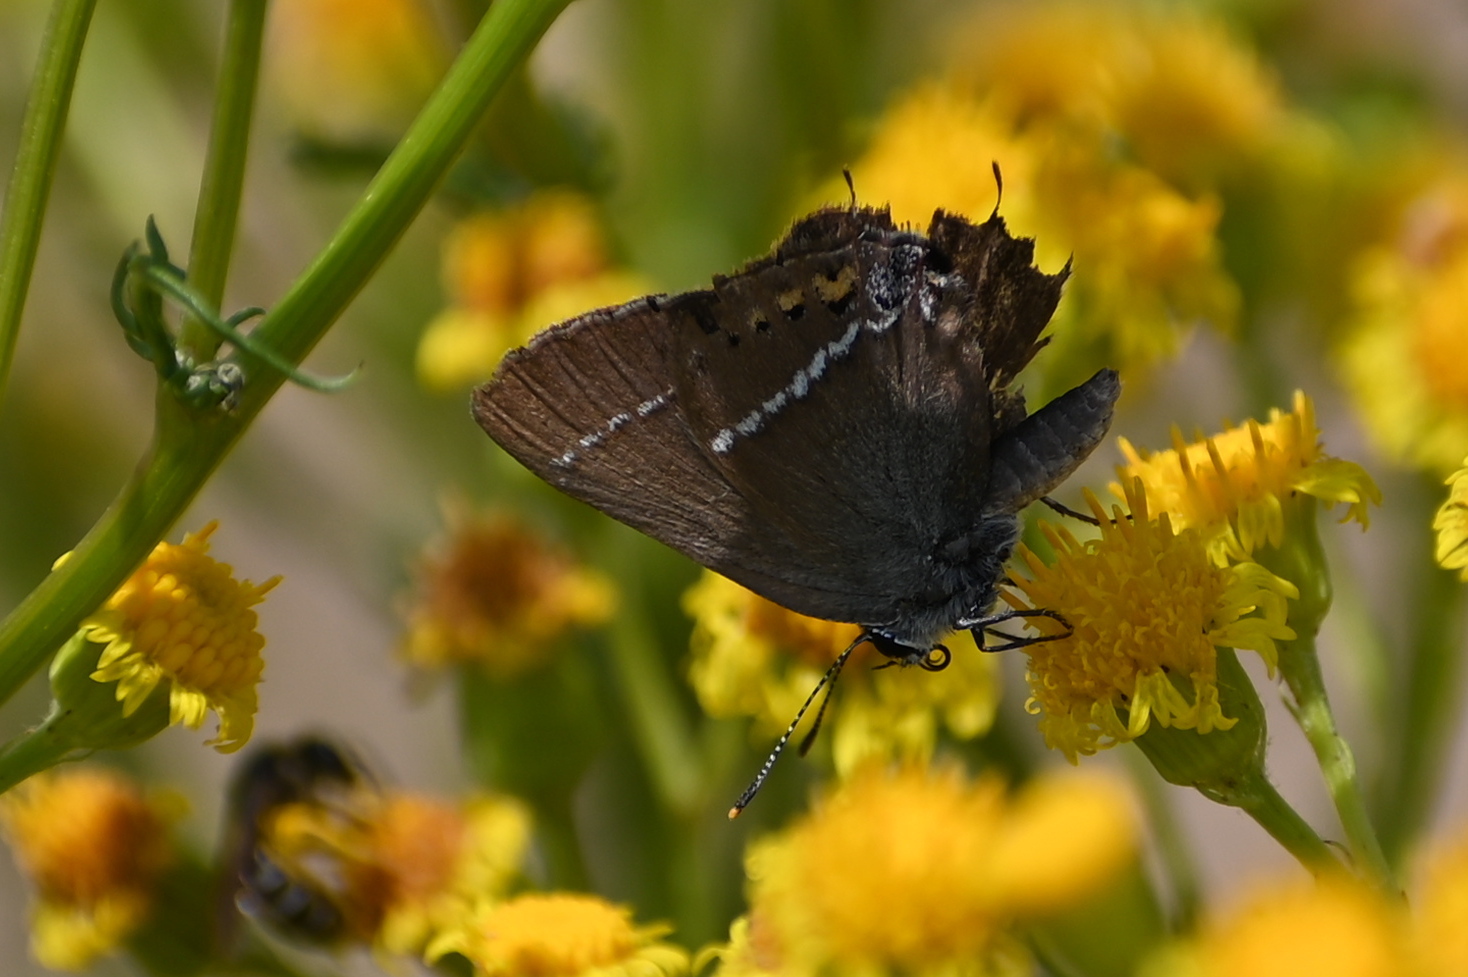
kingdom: Animalia
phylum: Arthropoda
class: Insecta
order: Lepidoptera
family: Lycaenidae
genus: Tuttiola
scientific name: Tuttiola spini
